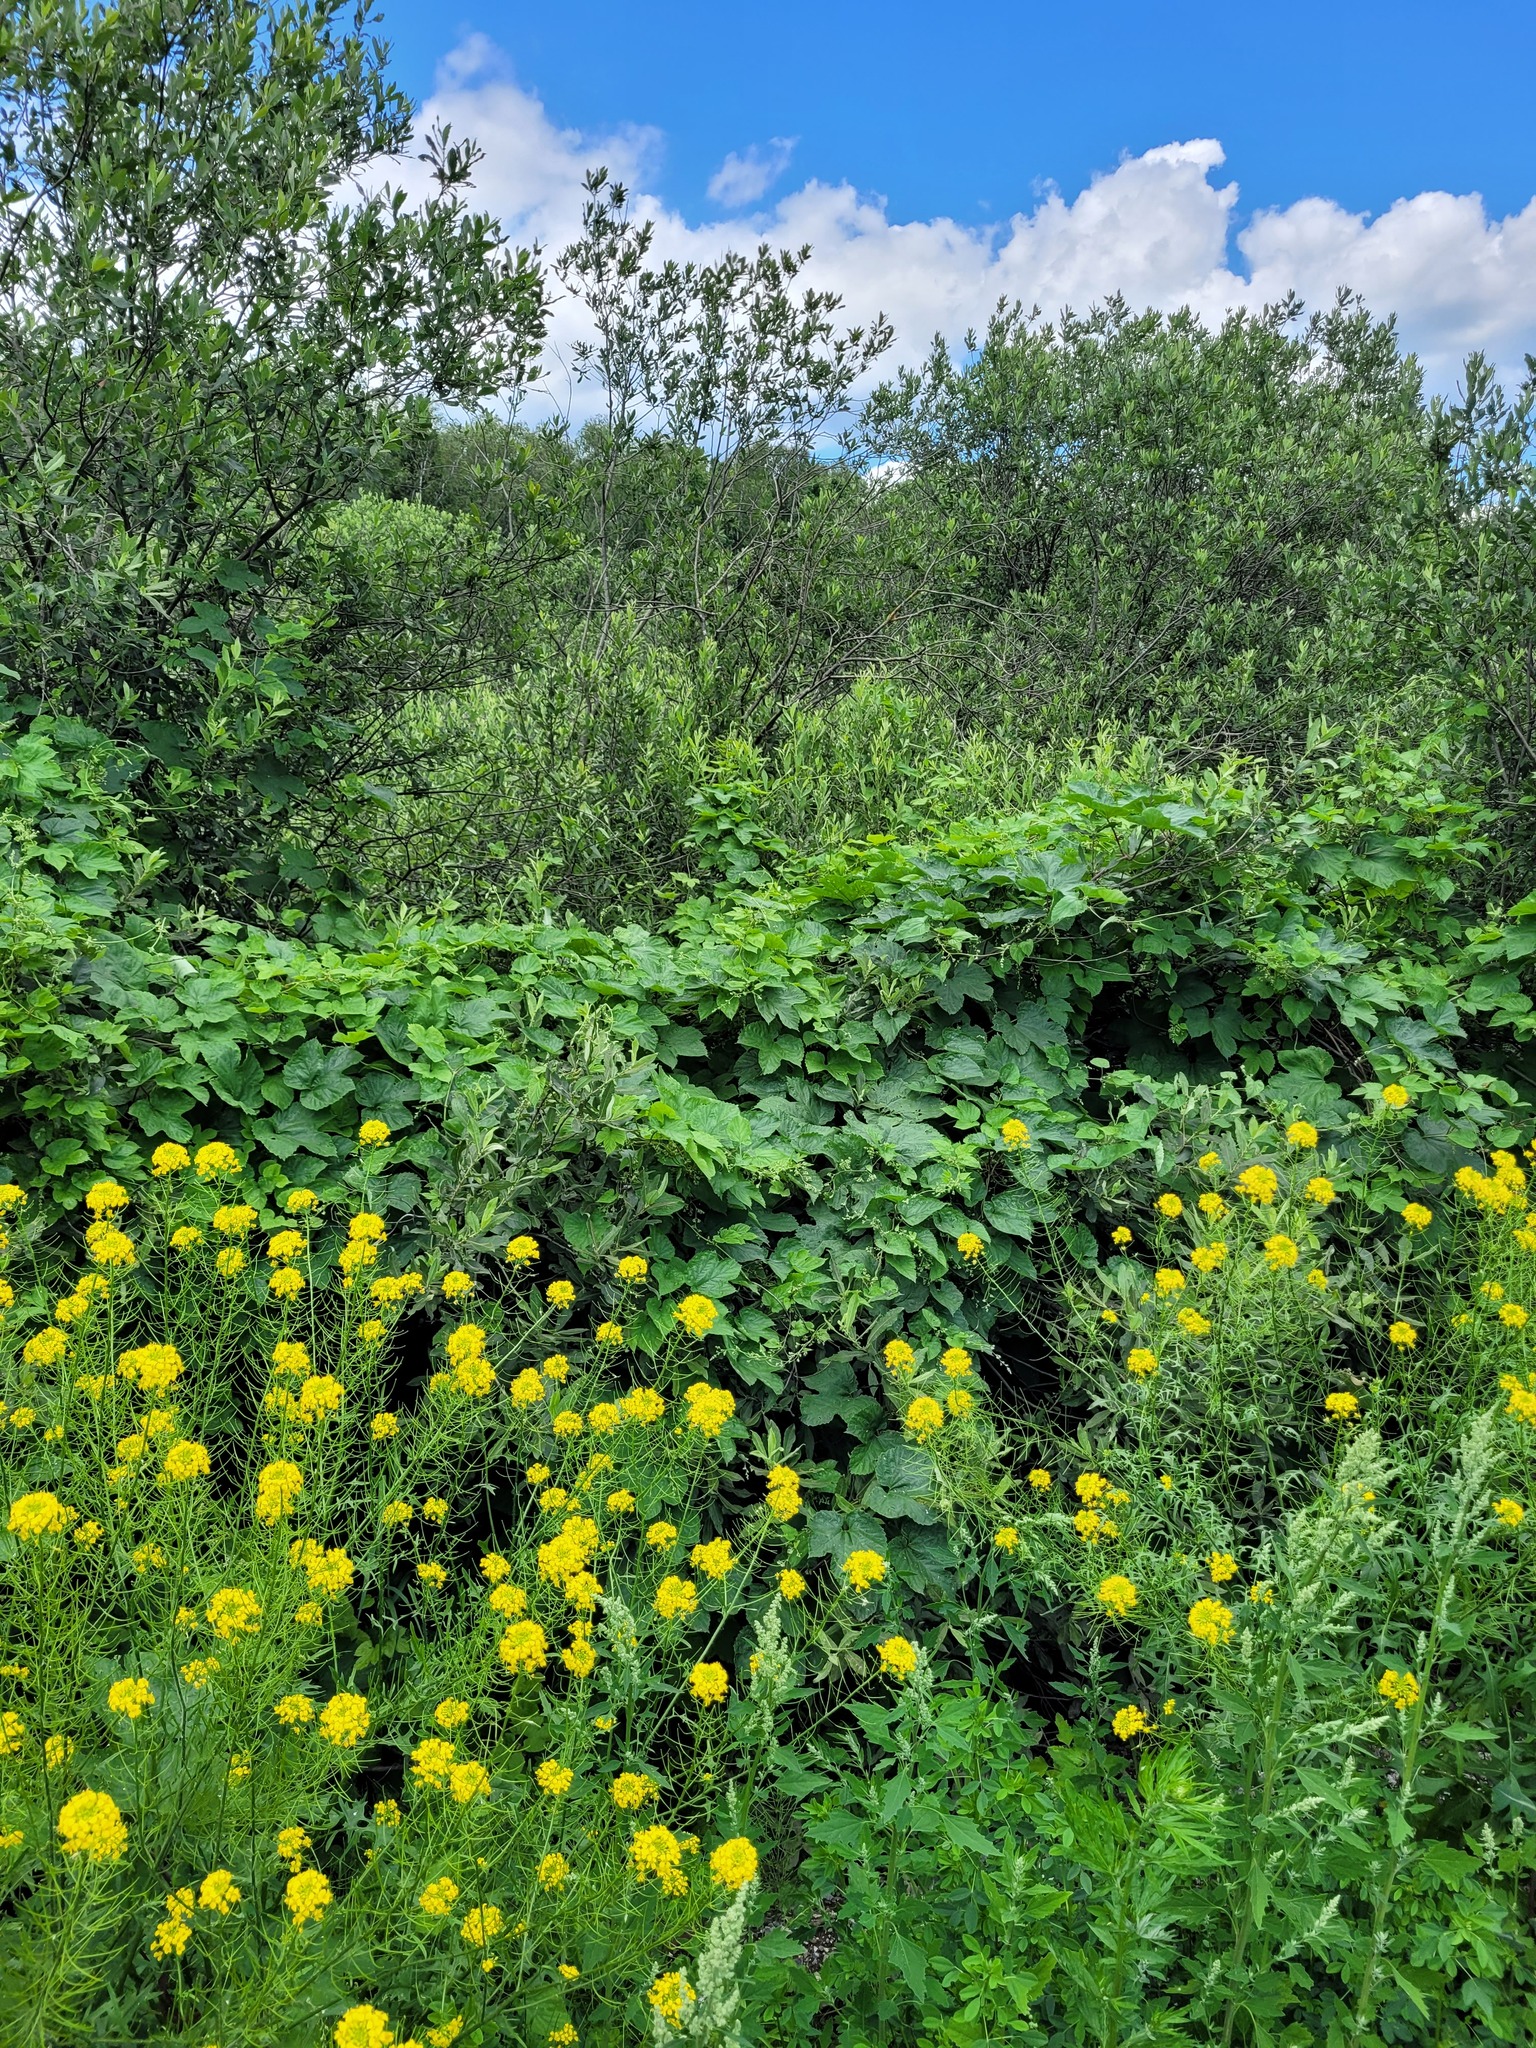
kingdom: Plantae
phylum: Tracheophyta
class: Magnoliopsida
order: Rosales
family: Cannabaceae
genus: Humulus
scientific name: Humulus lupulus
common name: Hop
